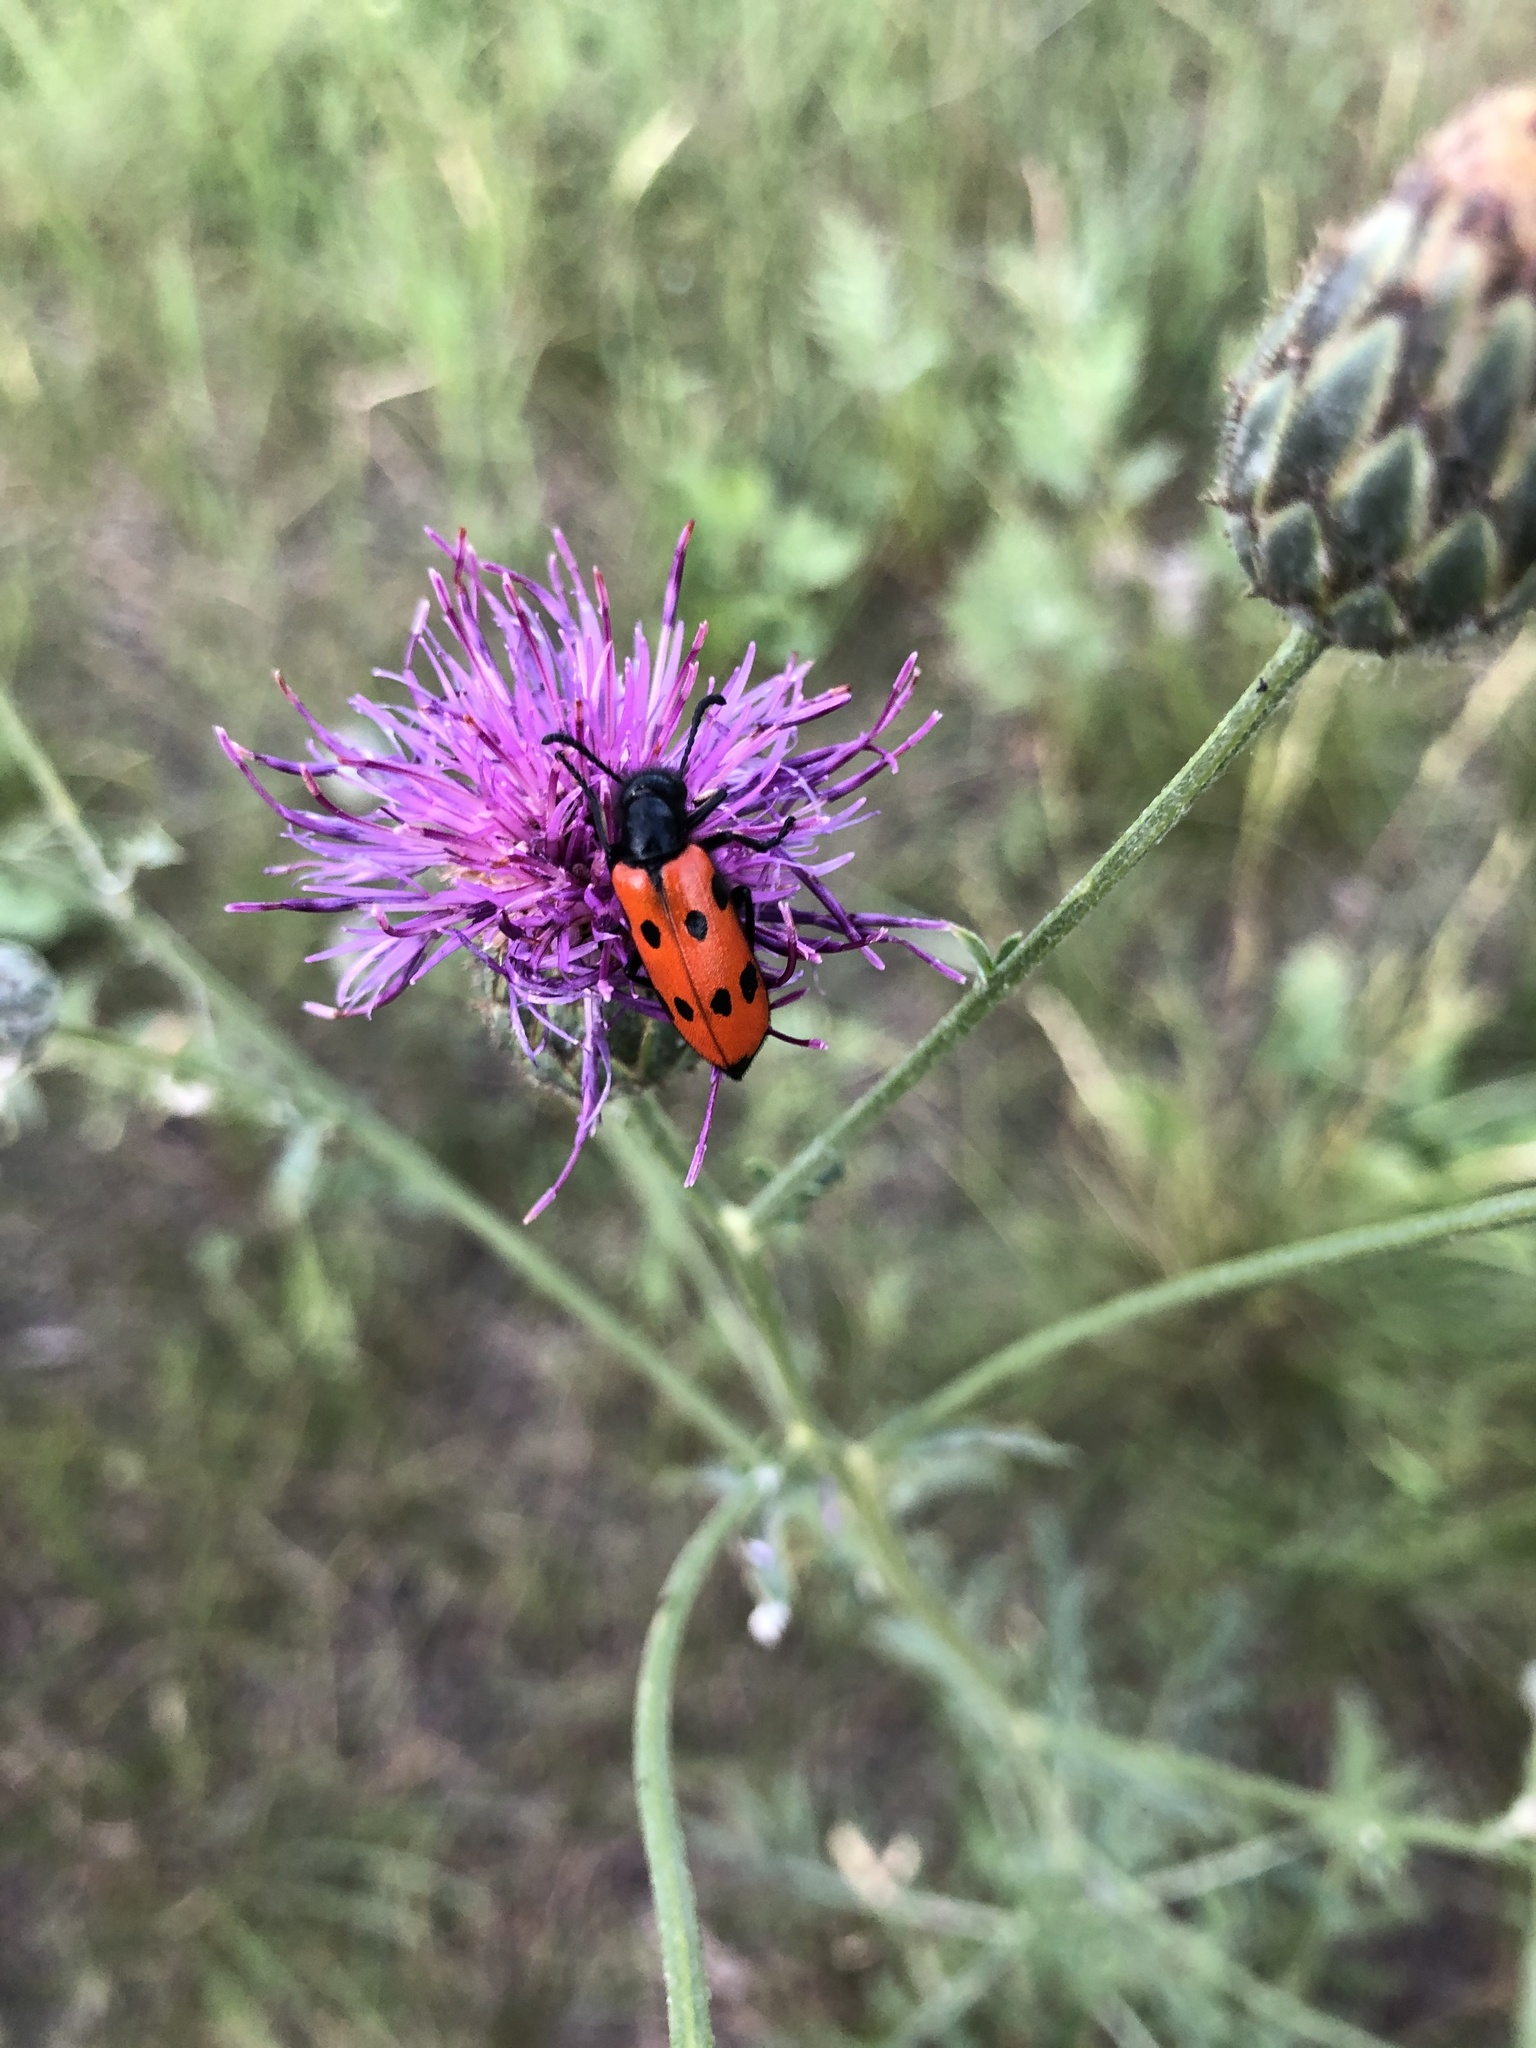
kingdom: Animalia
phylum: Arthropoda
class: Insecta
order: Coleoptera
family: Meloidae
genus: Mylabris
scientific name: Mylabris quadripunctata
